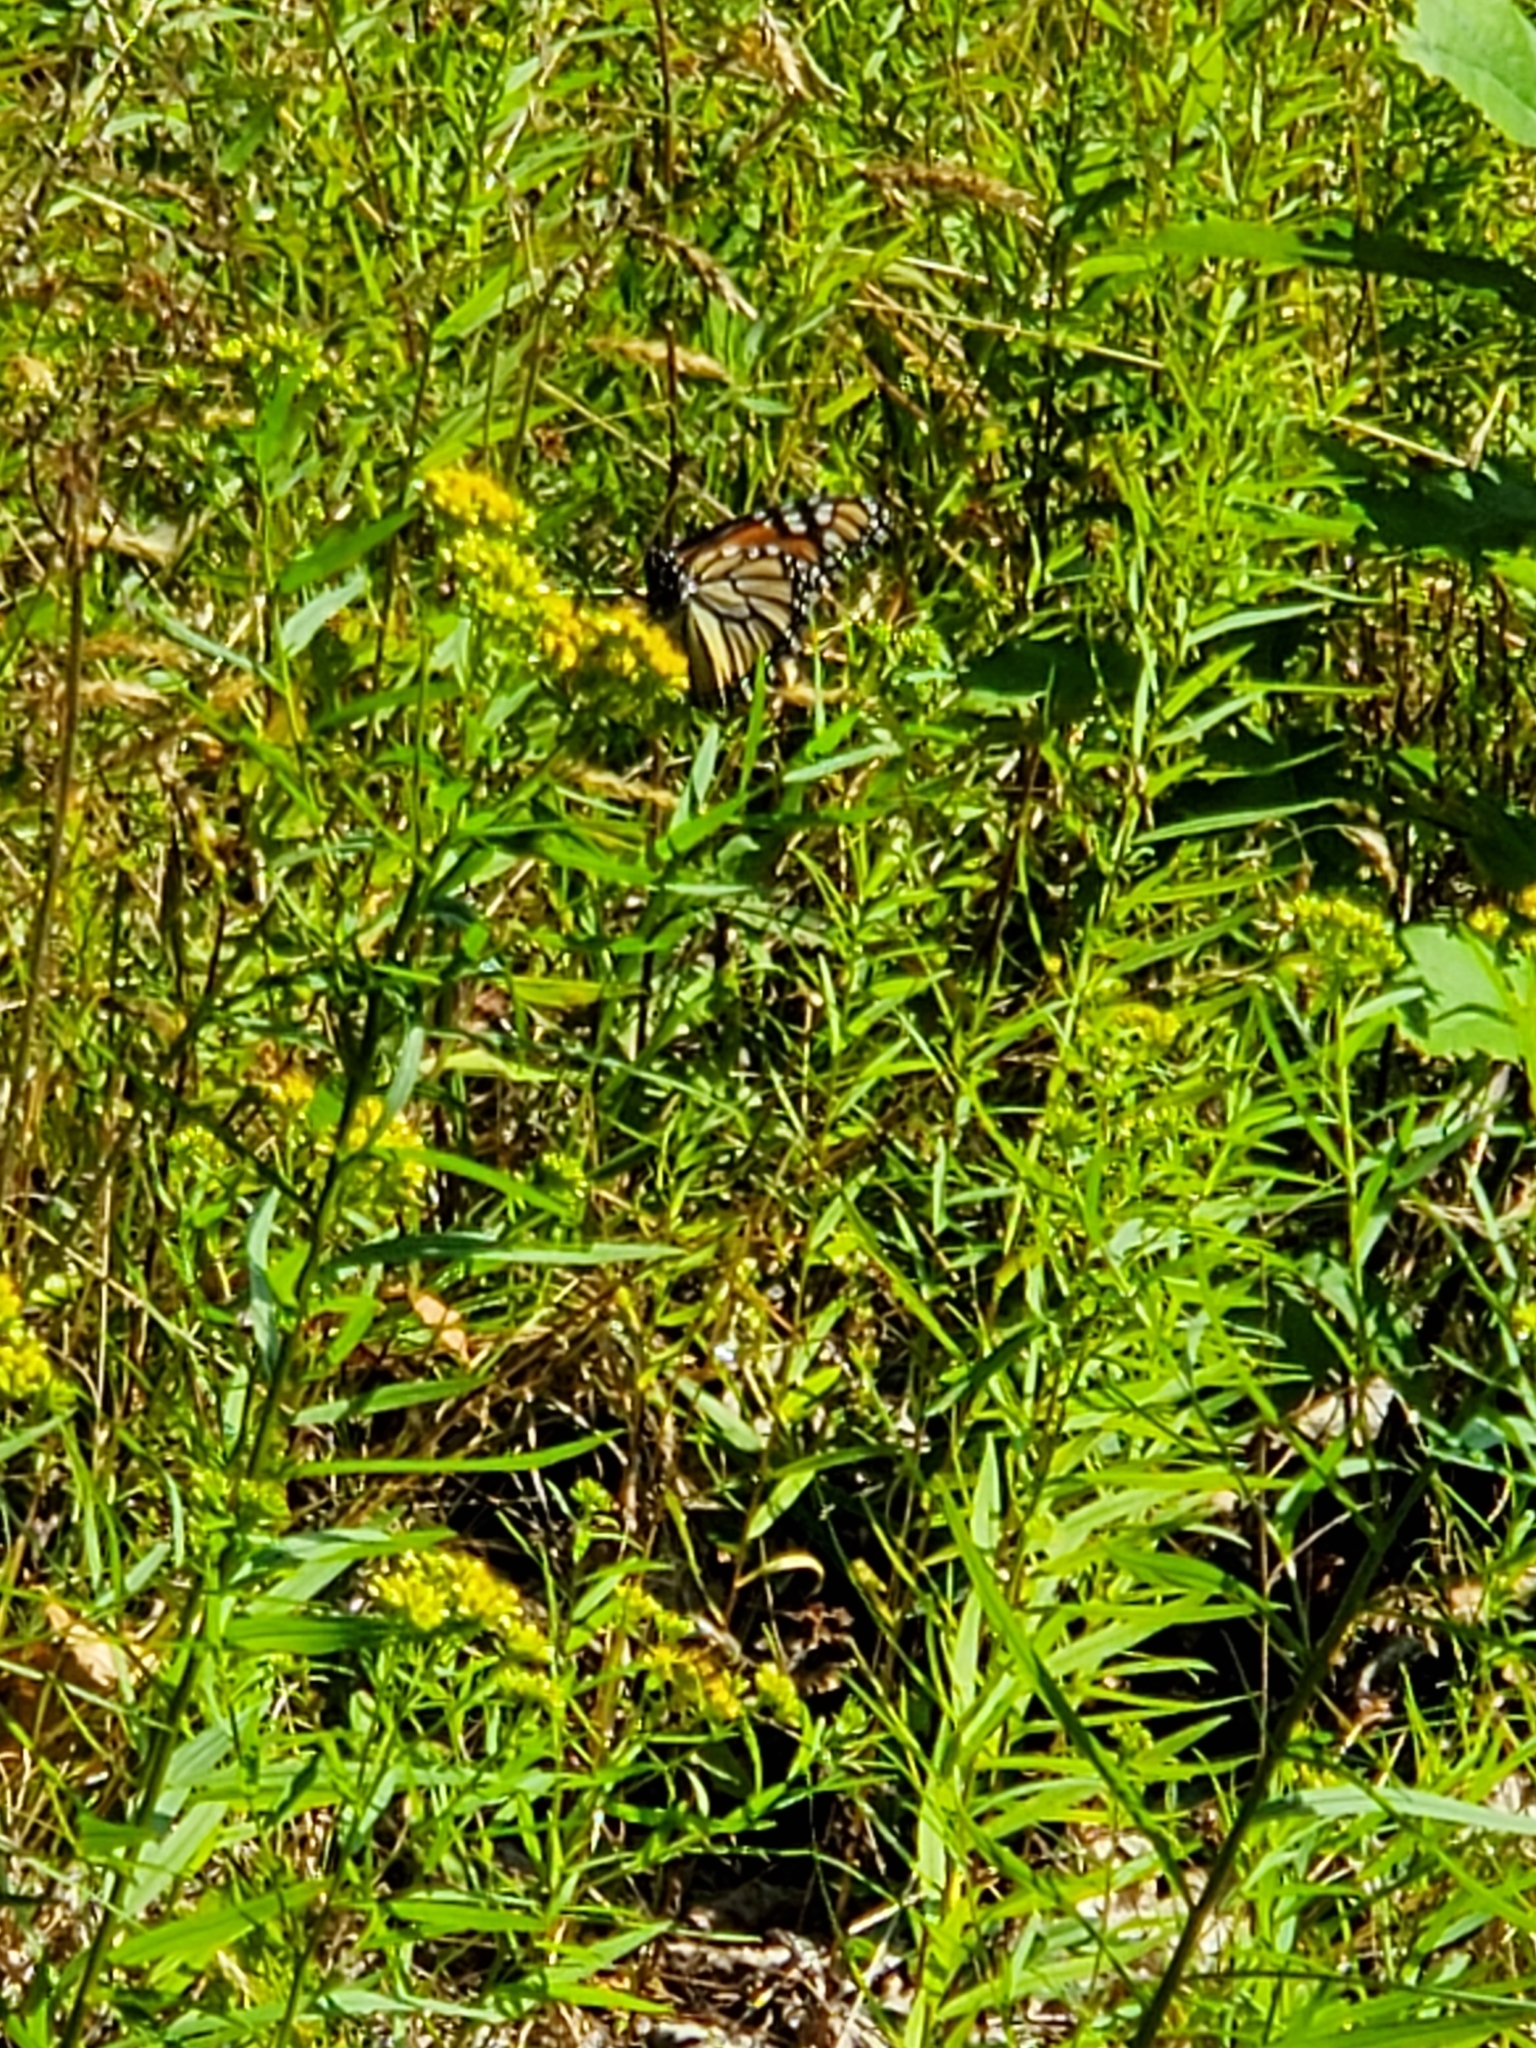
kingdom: Animalia
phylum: Arthropoda
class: Insecta
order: Lepidoptera
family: Nymphalidae
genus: Danaus
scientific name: Danaus plexippus
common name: Monarch
